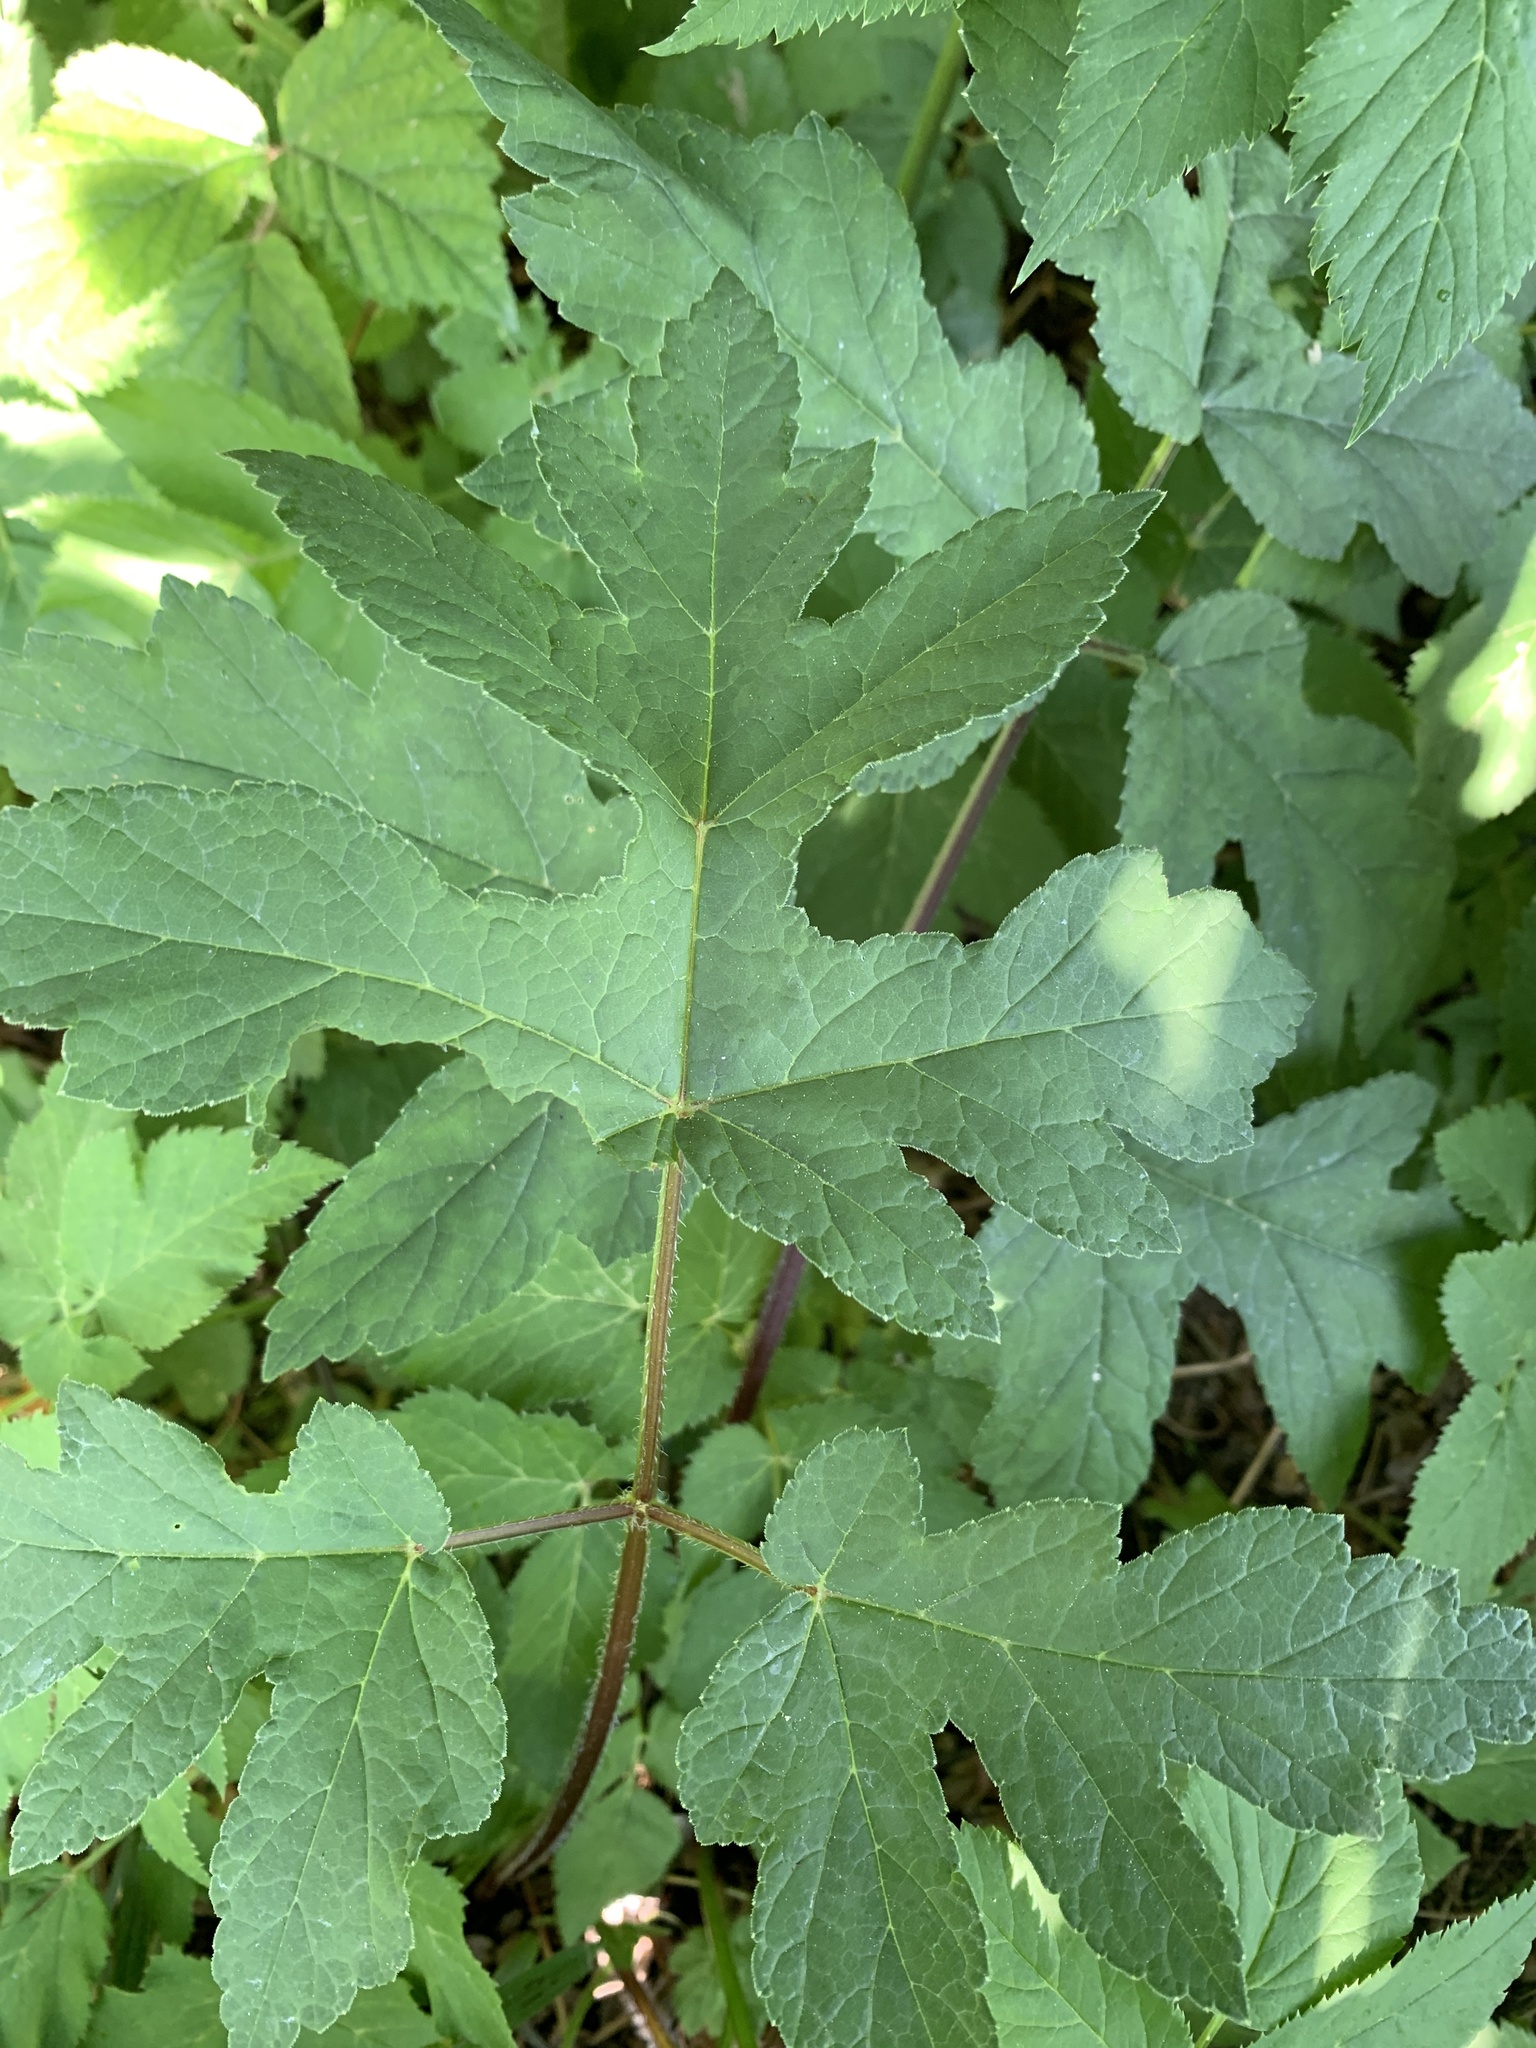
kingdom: Plantae
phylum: Tracheophyta
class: Magnoliopsida
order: Apiales
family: Apiaceae
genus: Heracleum
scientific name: Heracleum sphondylium
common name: Hogweed
